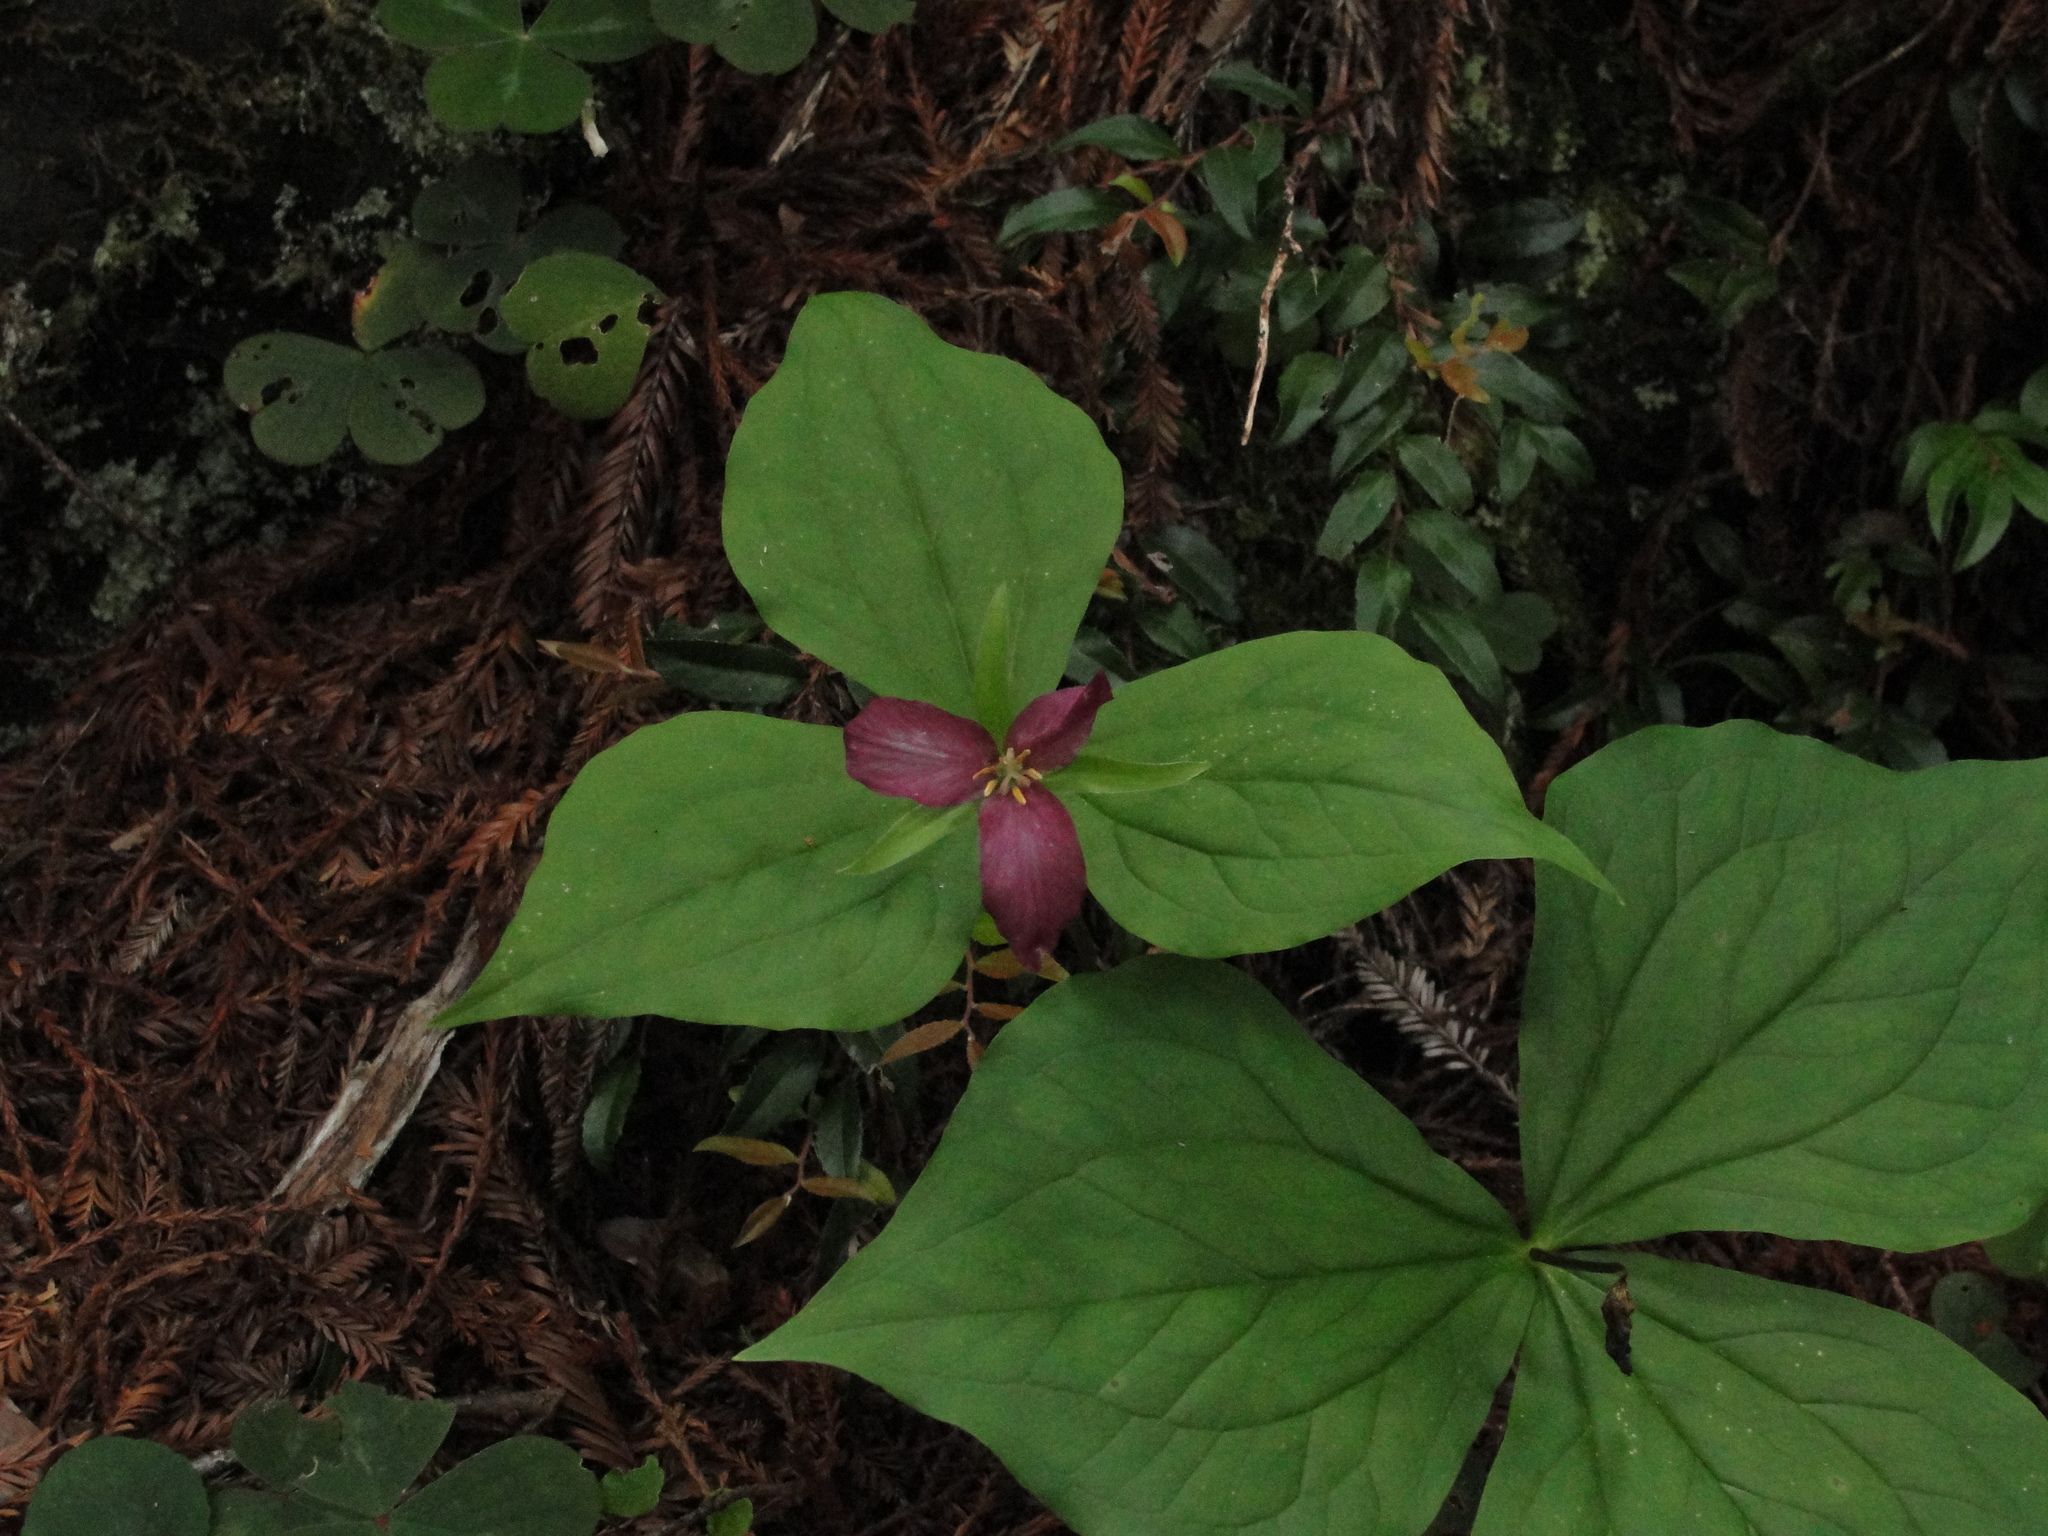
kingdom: Plantae
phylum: Tracheophyta
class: Liliopsida
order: Liliales
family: Melanthiaceae
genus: Trillium
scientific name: Trillium ovatum
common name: Pacific trillium
